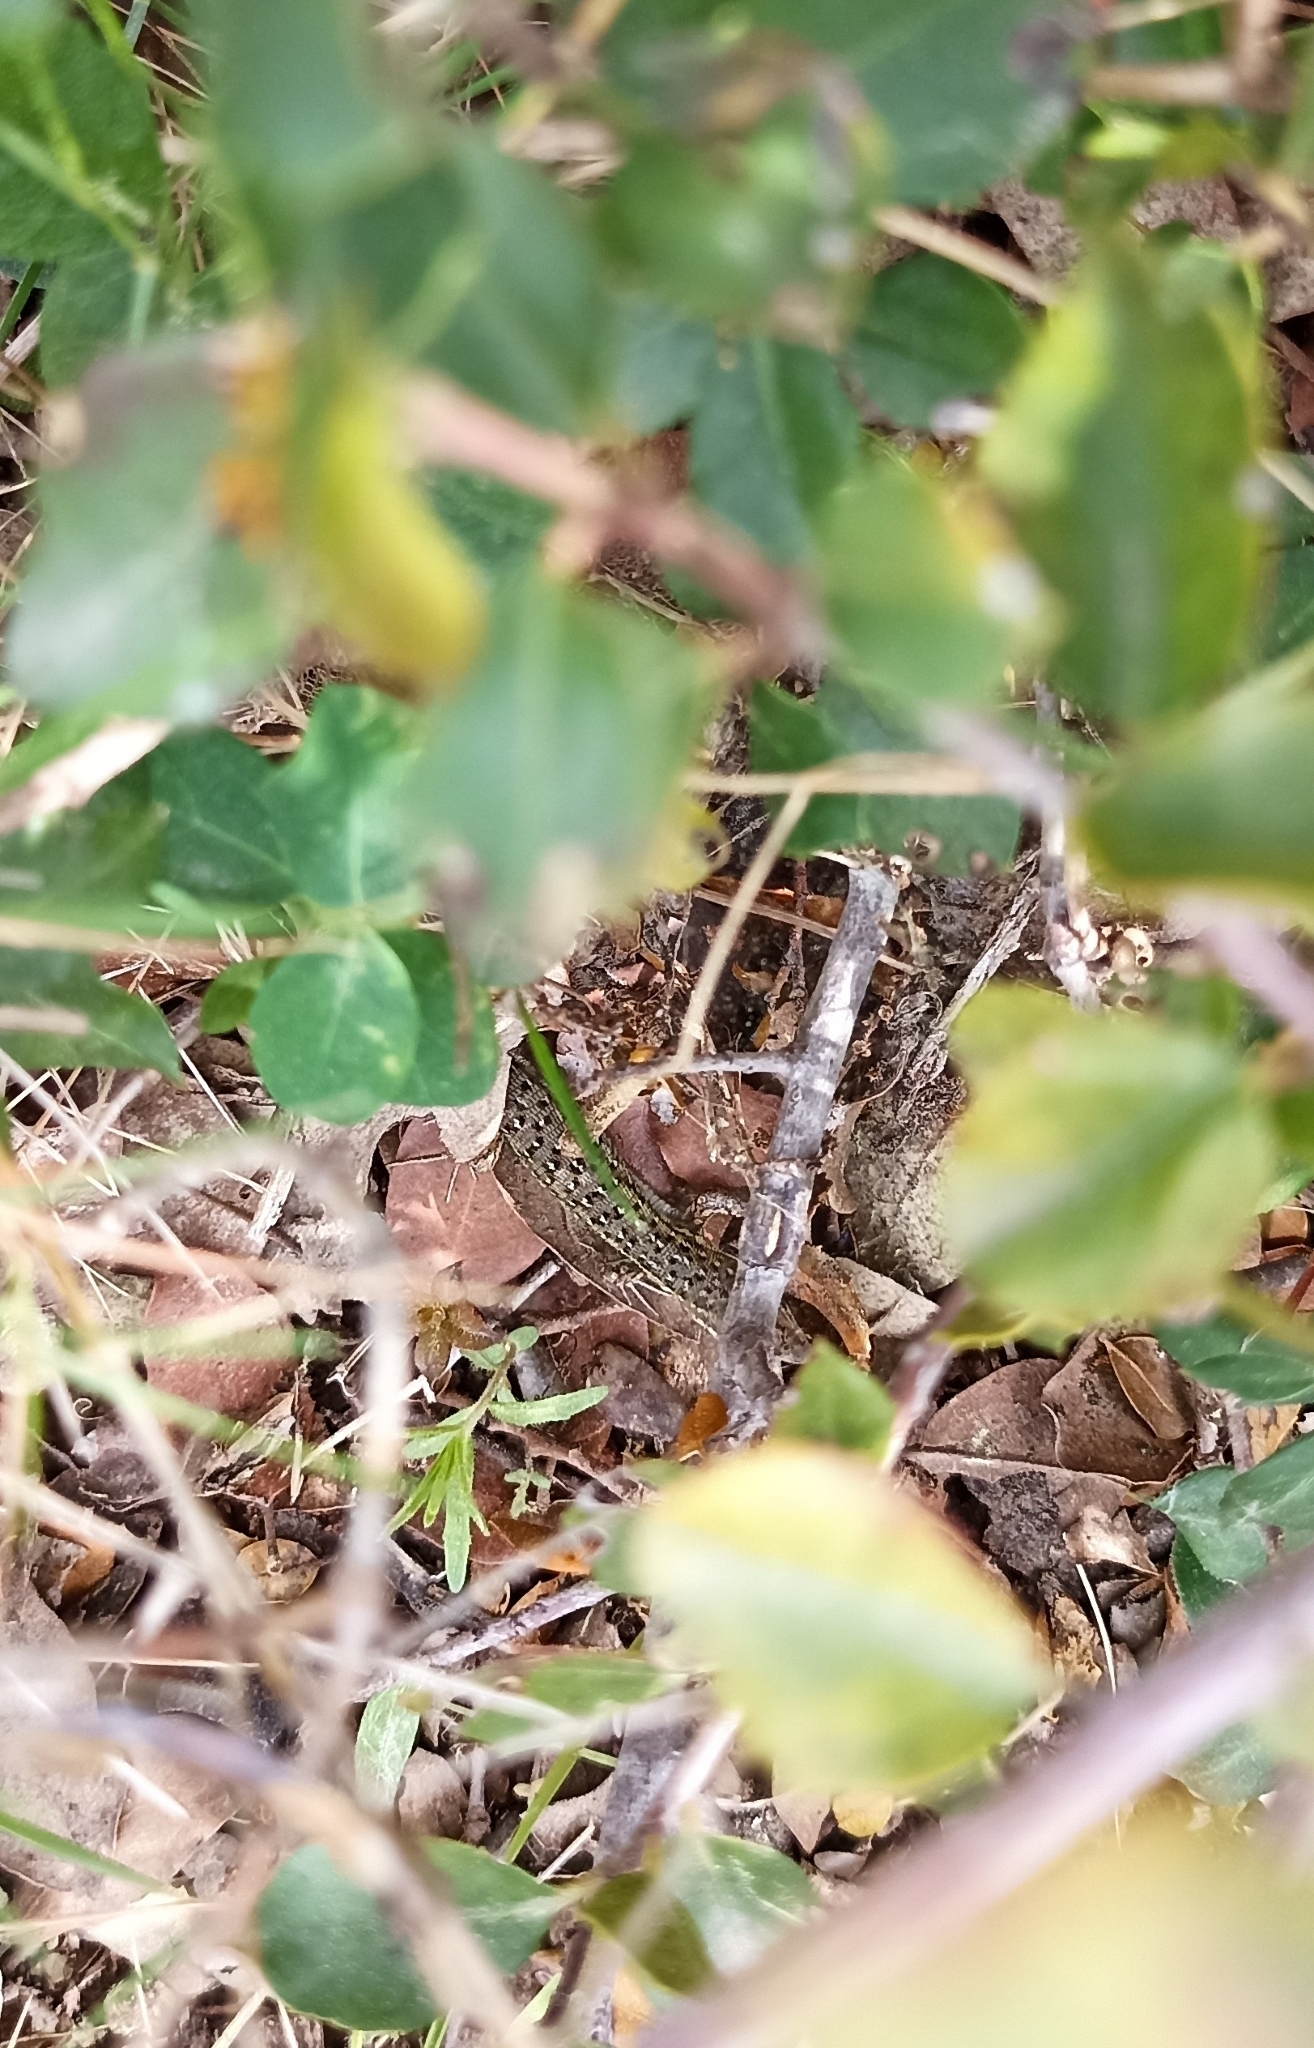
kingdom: Animalia
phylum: Chordata
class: Squamata
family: Lacertidae
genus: Psammodromus
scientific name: Psammodromus edwarsianus
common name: East iberian psammodromus
